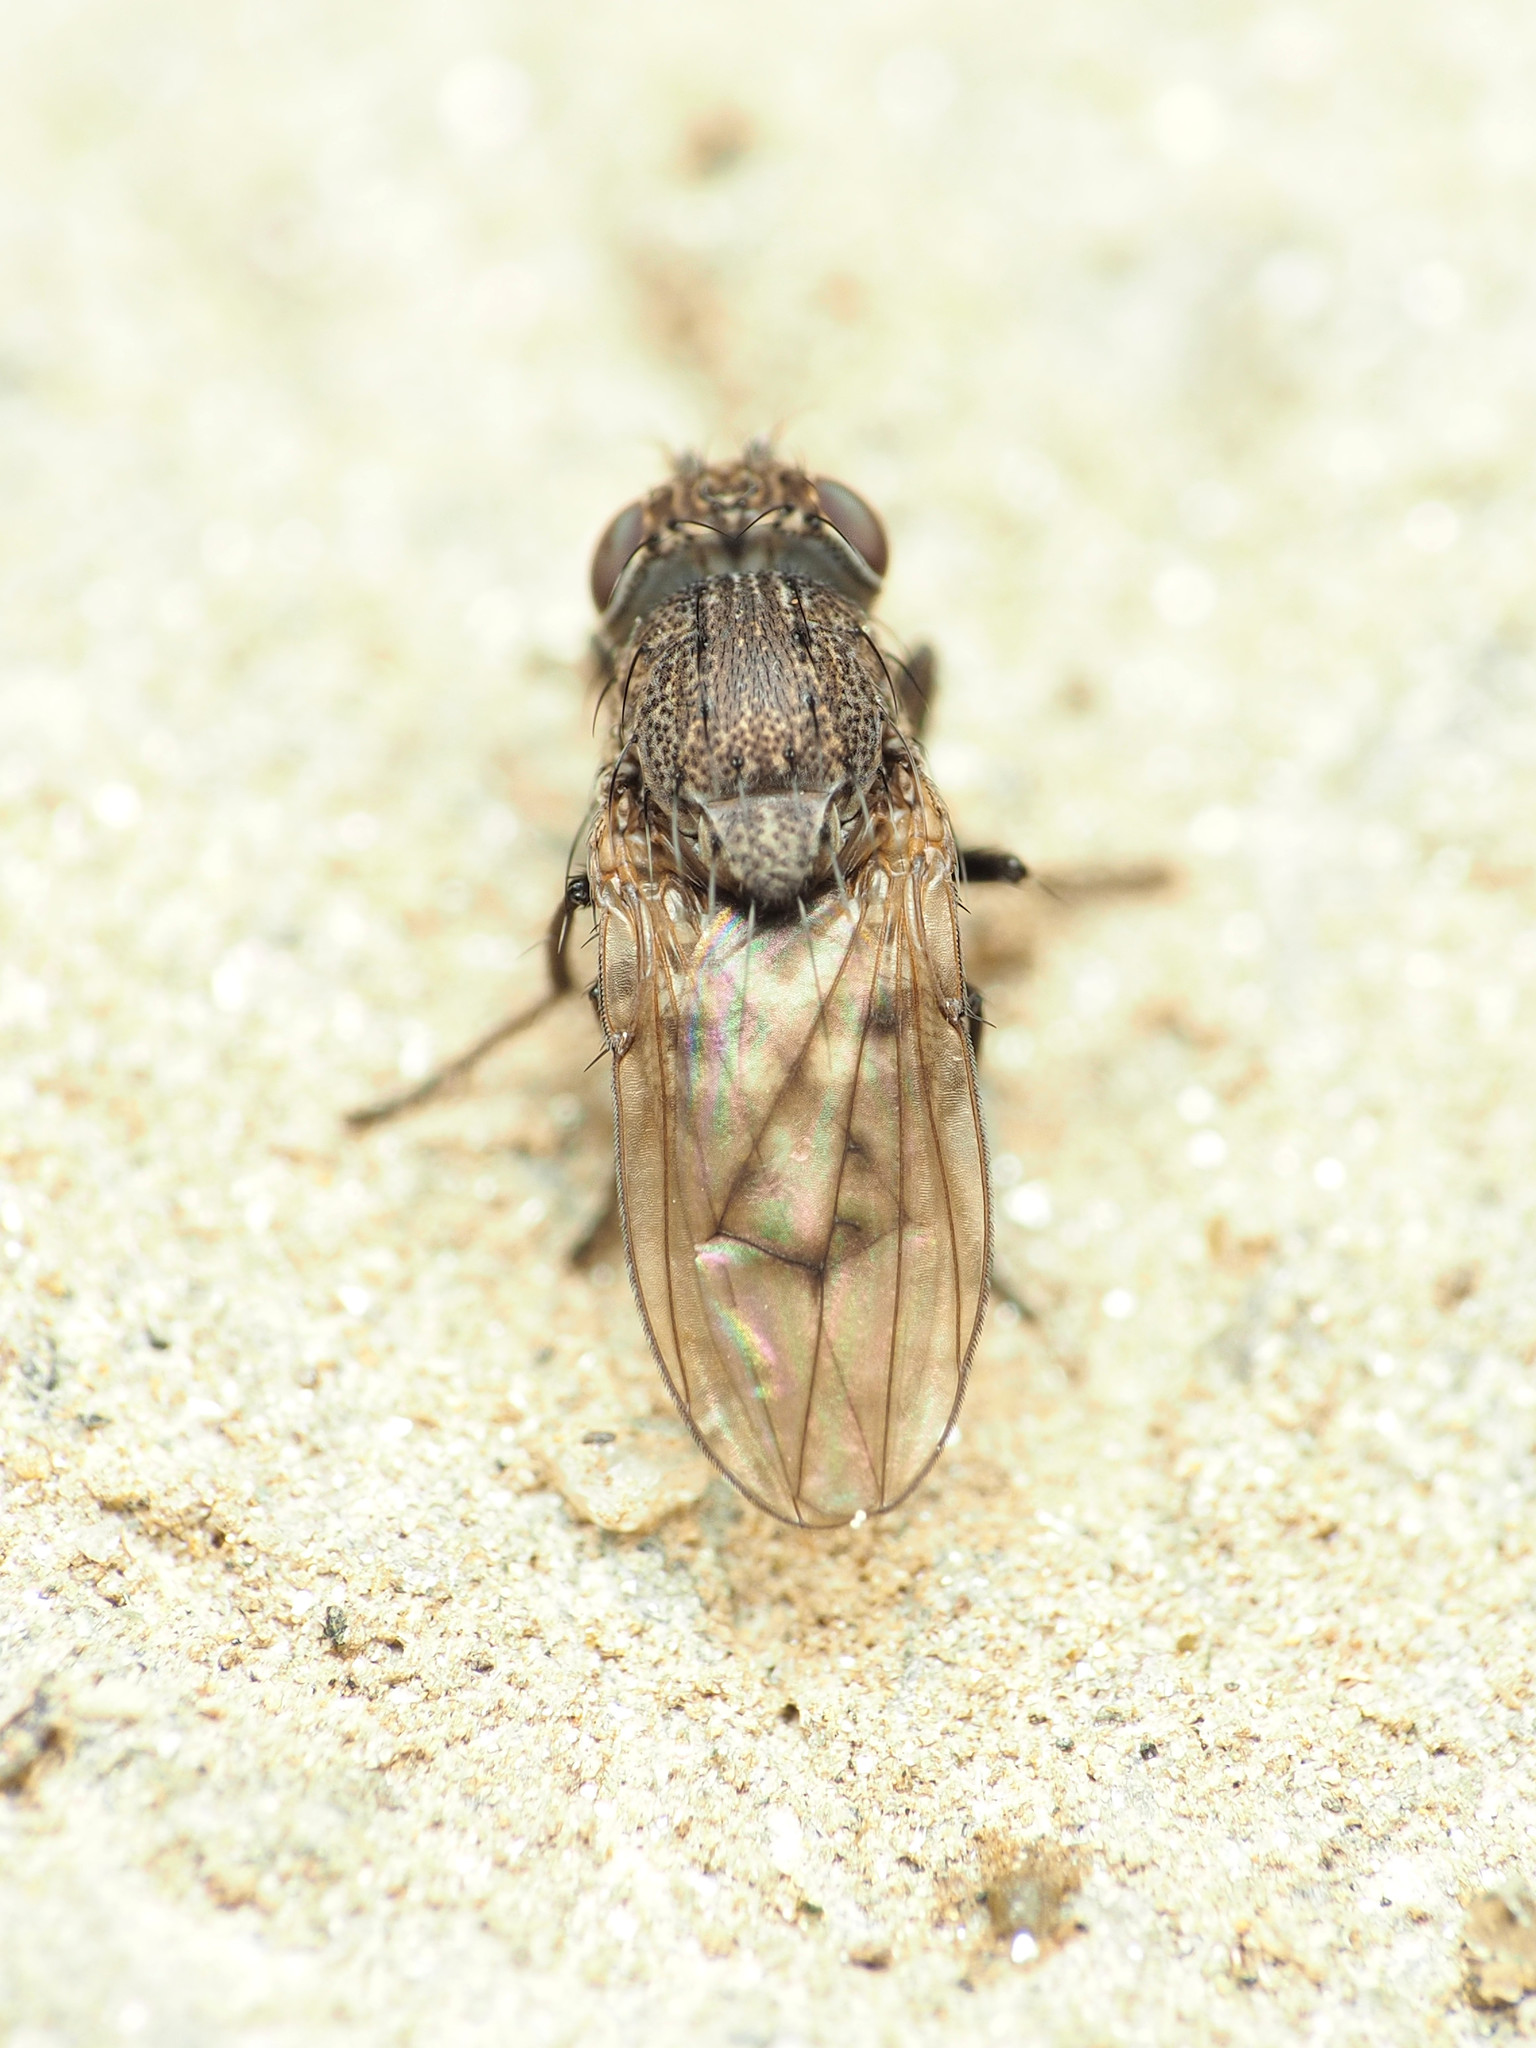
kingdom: Animalia
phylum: Arthropoda
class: Insecta
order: Diptera
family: Ephydridae
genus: Paralimna
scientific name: Paralimna punctipennis
